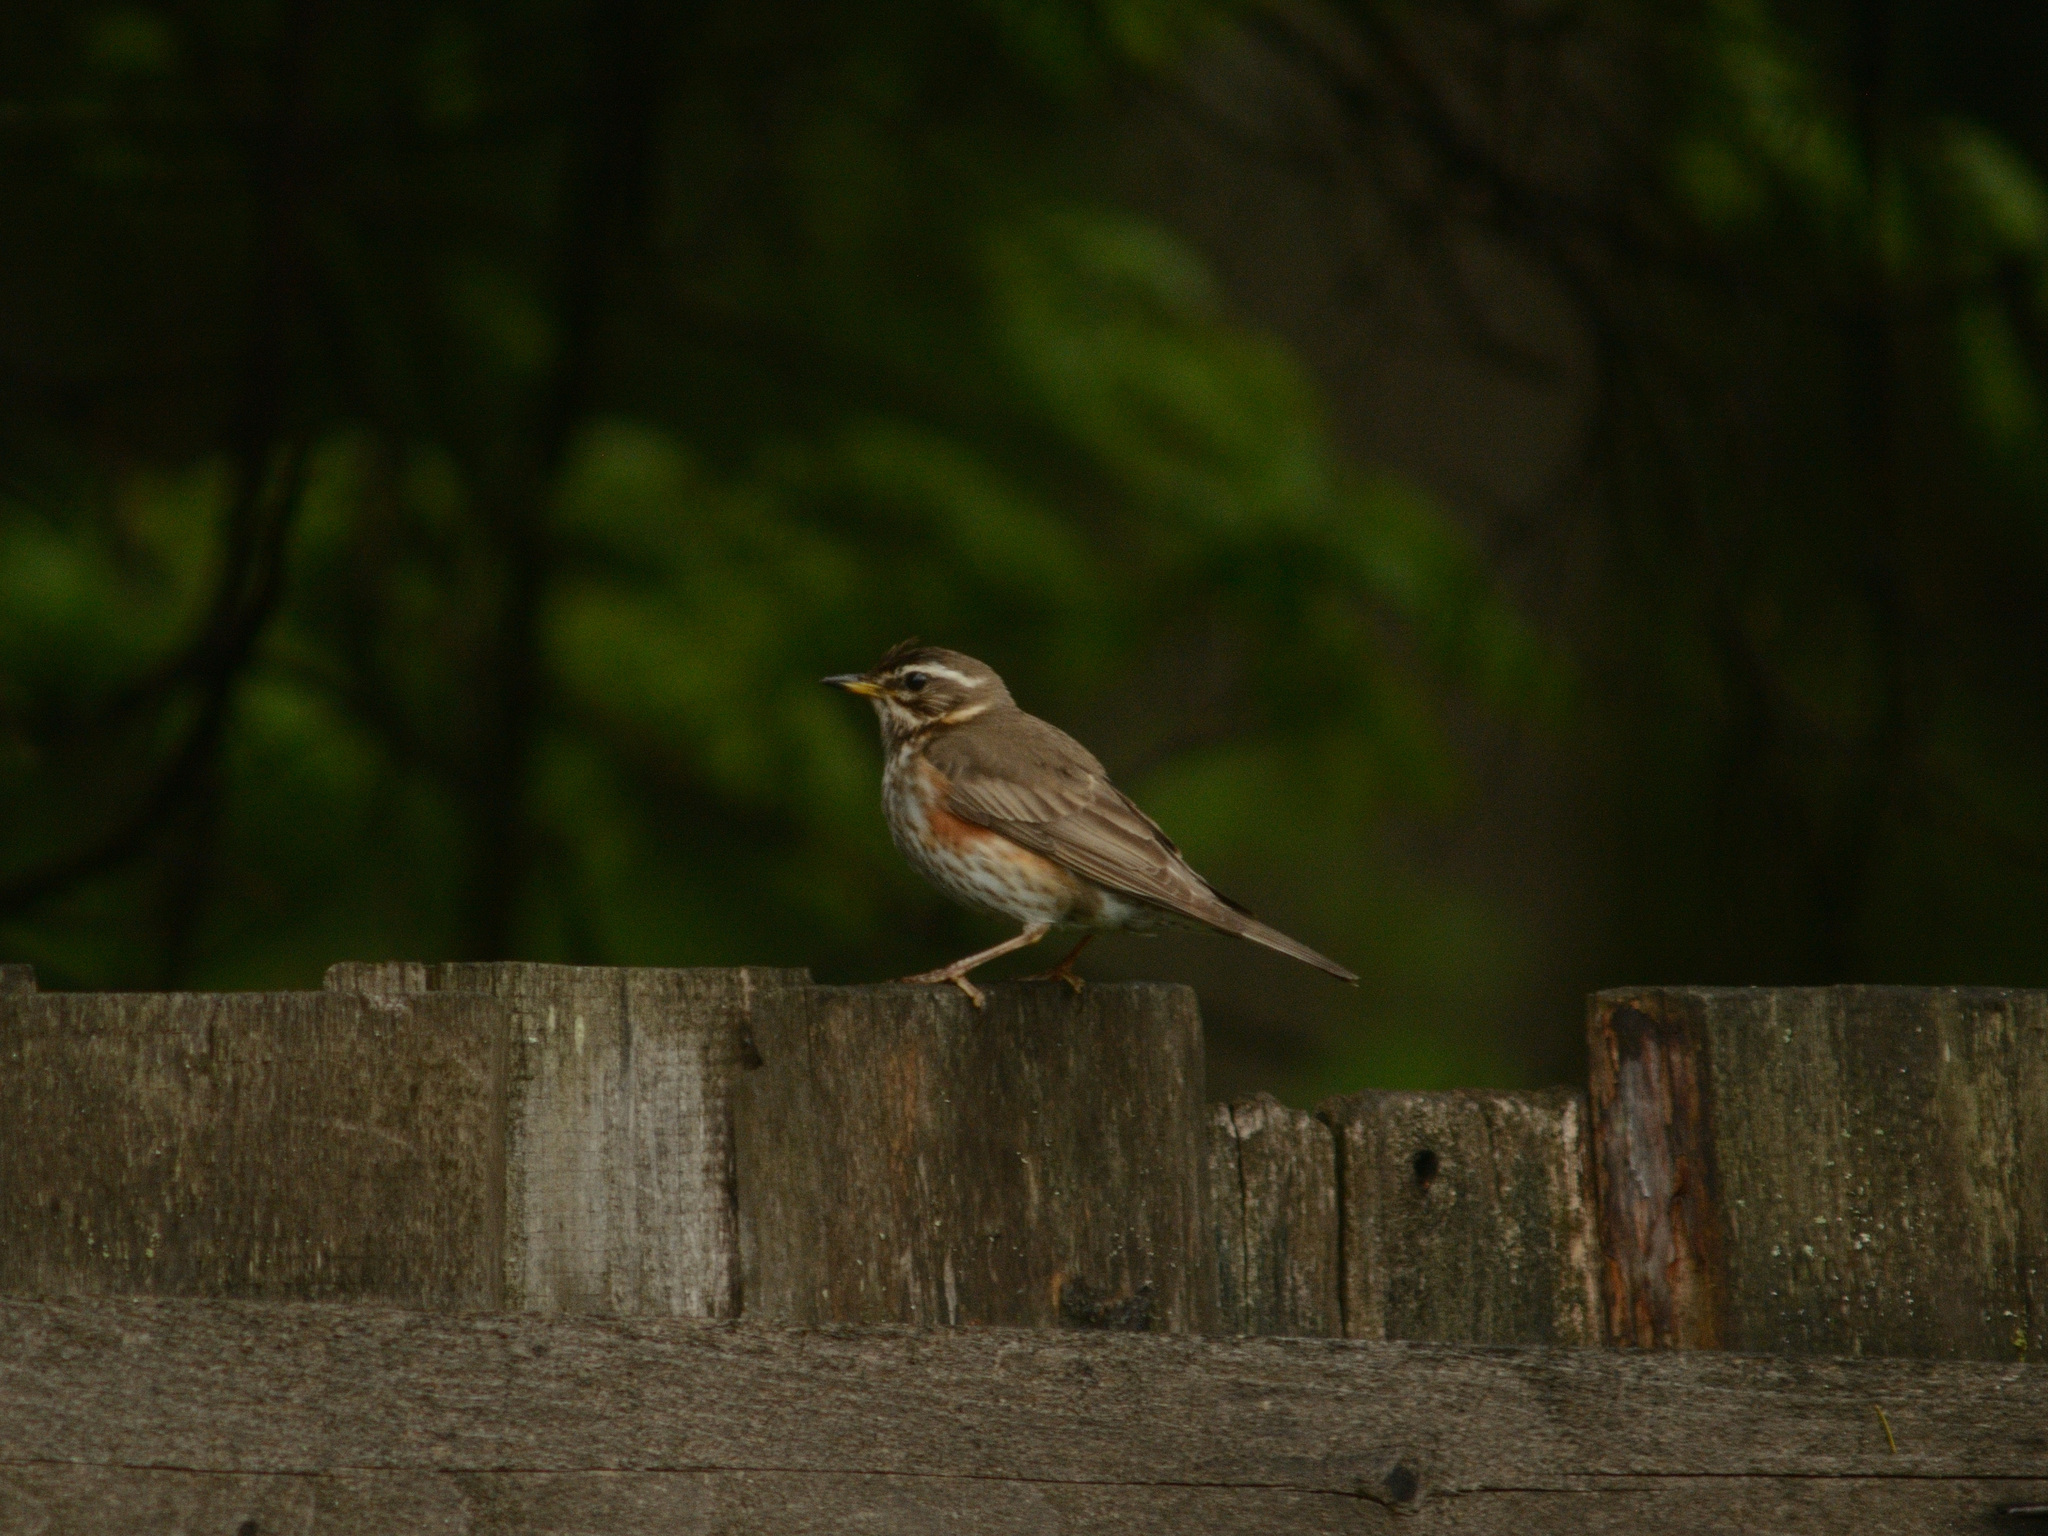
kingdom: Animalia
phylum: Chordata
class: Aves
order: Passeriformes
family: Turdidae
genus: Turdus
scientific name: Turdus iliacus
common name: Redwing
